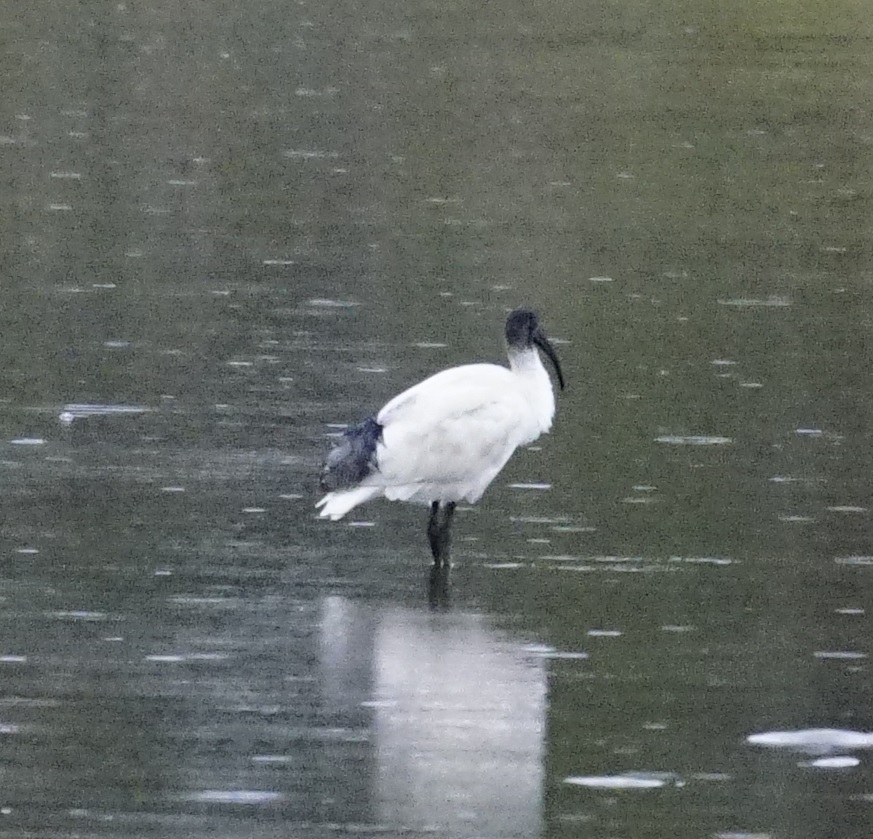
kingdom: Animalia
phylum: Chordata
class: Aves
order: Pelecaniformes
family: Threskiornithidae
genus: Threskiornis
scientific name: Threskiornis molucca
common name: Australian white ibis
